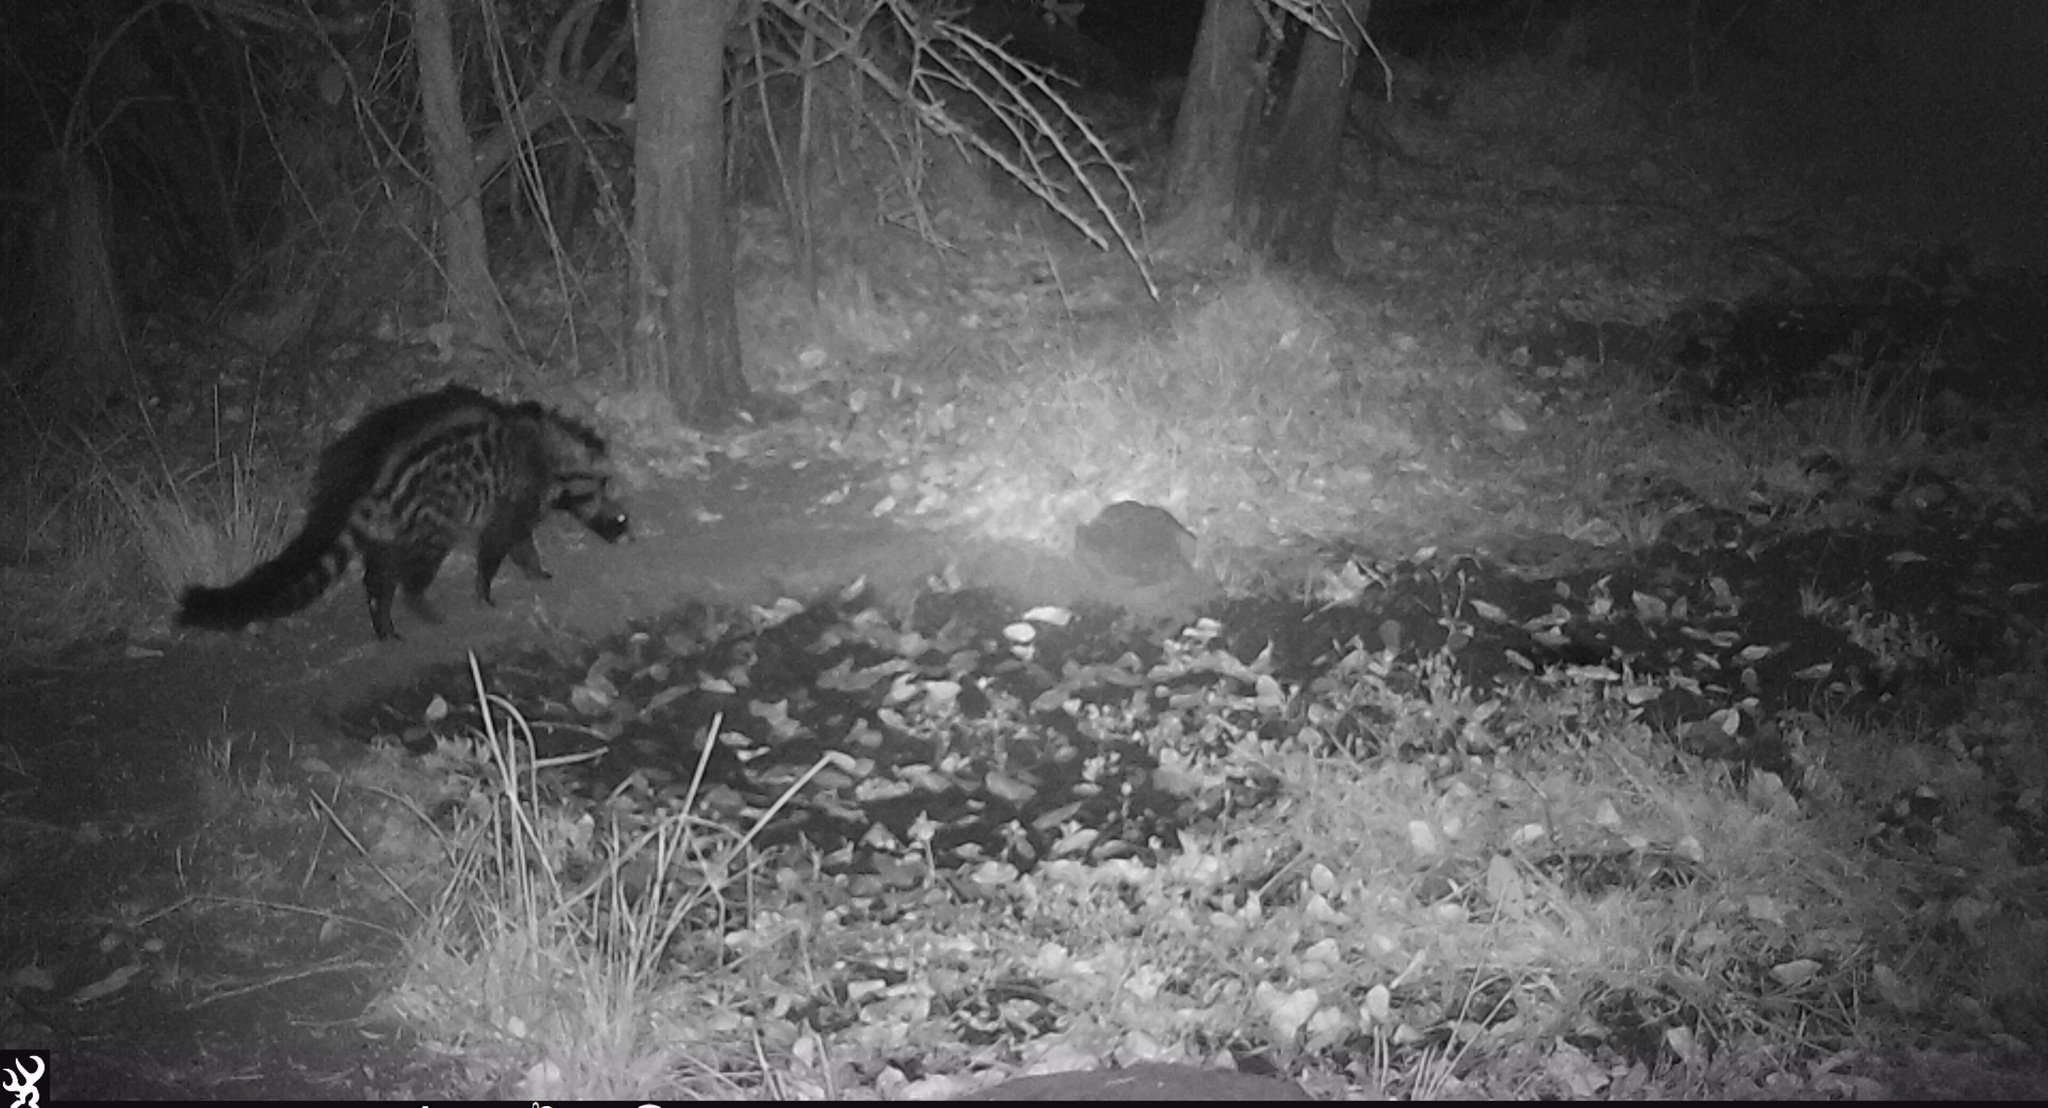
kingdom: Animalia
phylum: Chordata
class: Mammalia
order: Carnivora
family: Viverridae
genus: Civettictis
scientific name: Civettictis civetta
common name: African civet
